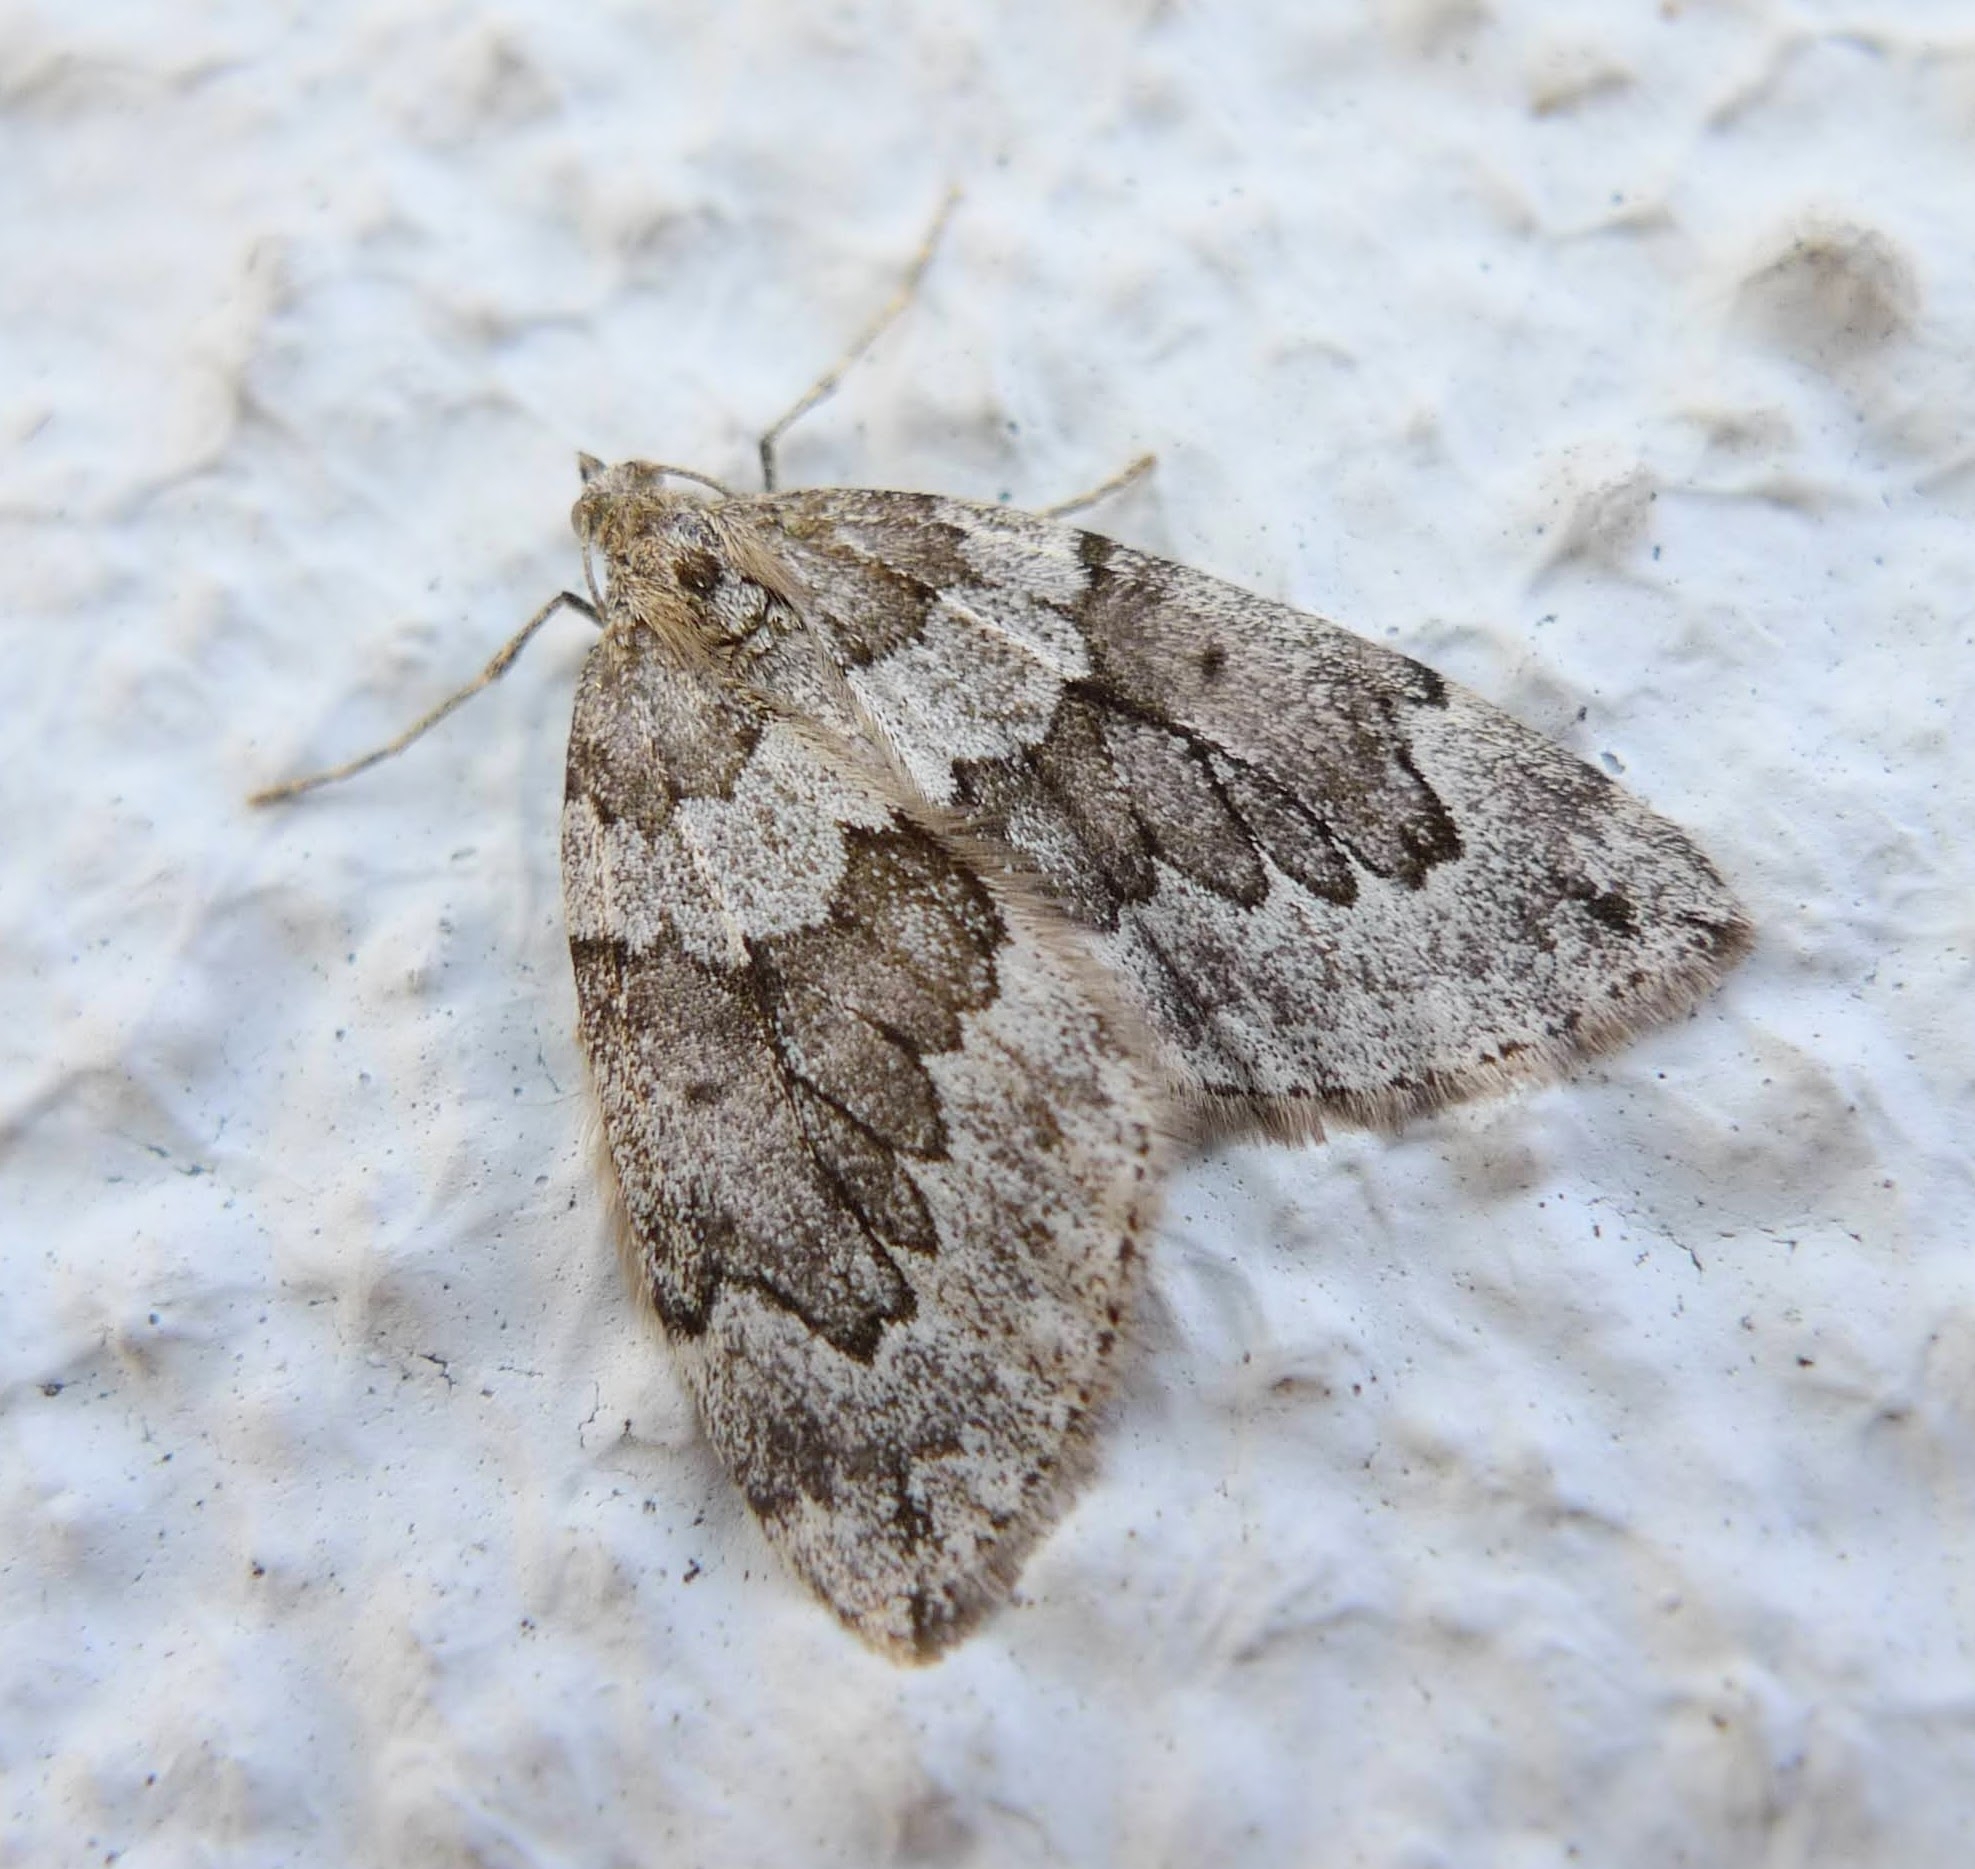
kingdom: Animalia
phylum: Arthropoda
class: Insecta
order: Lepidoptera
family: Geometridae
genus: Thera
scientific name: Thera juniperata
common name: Juniper carpet
